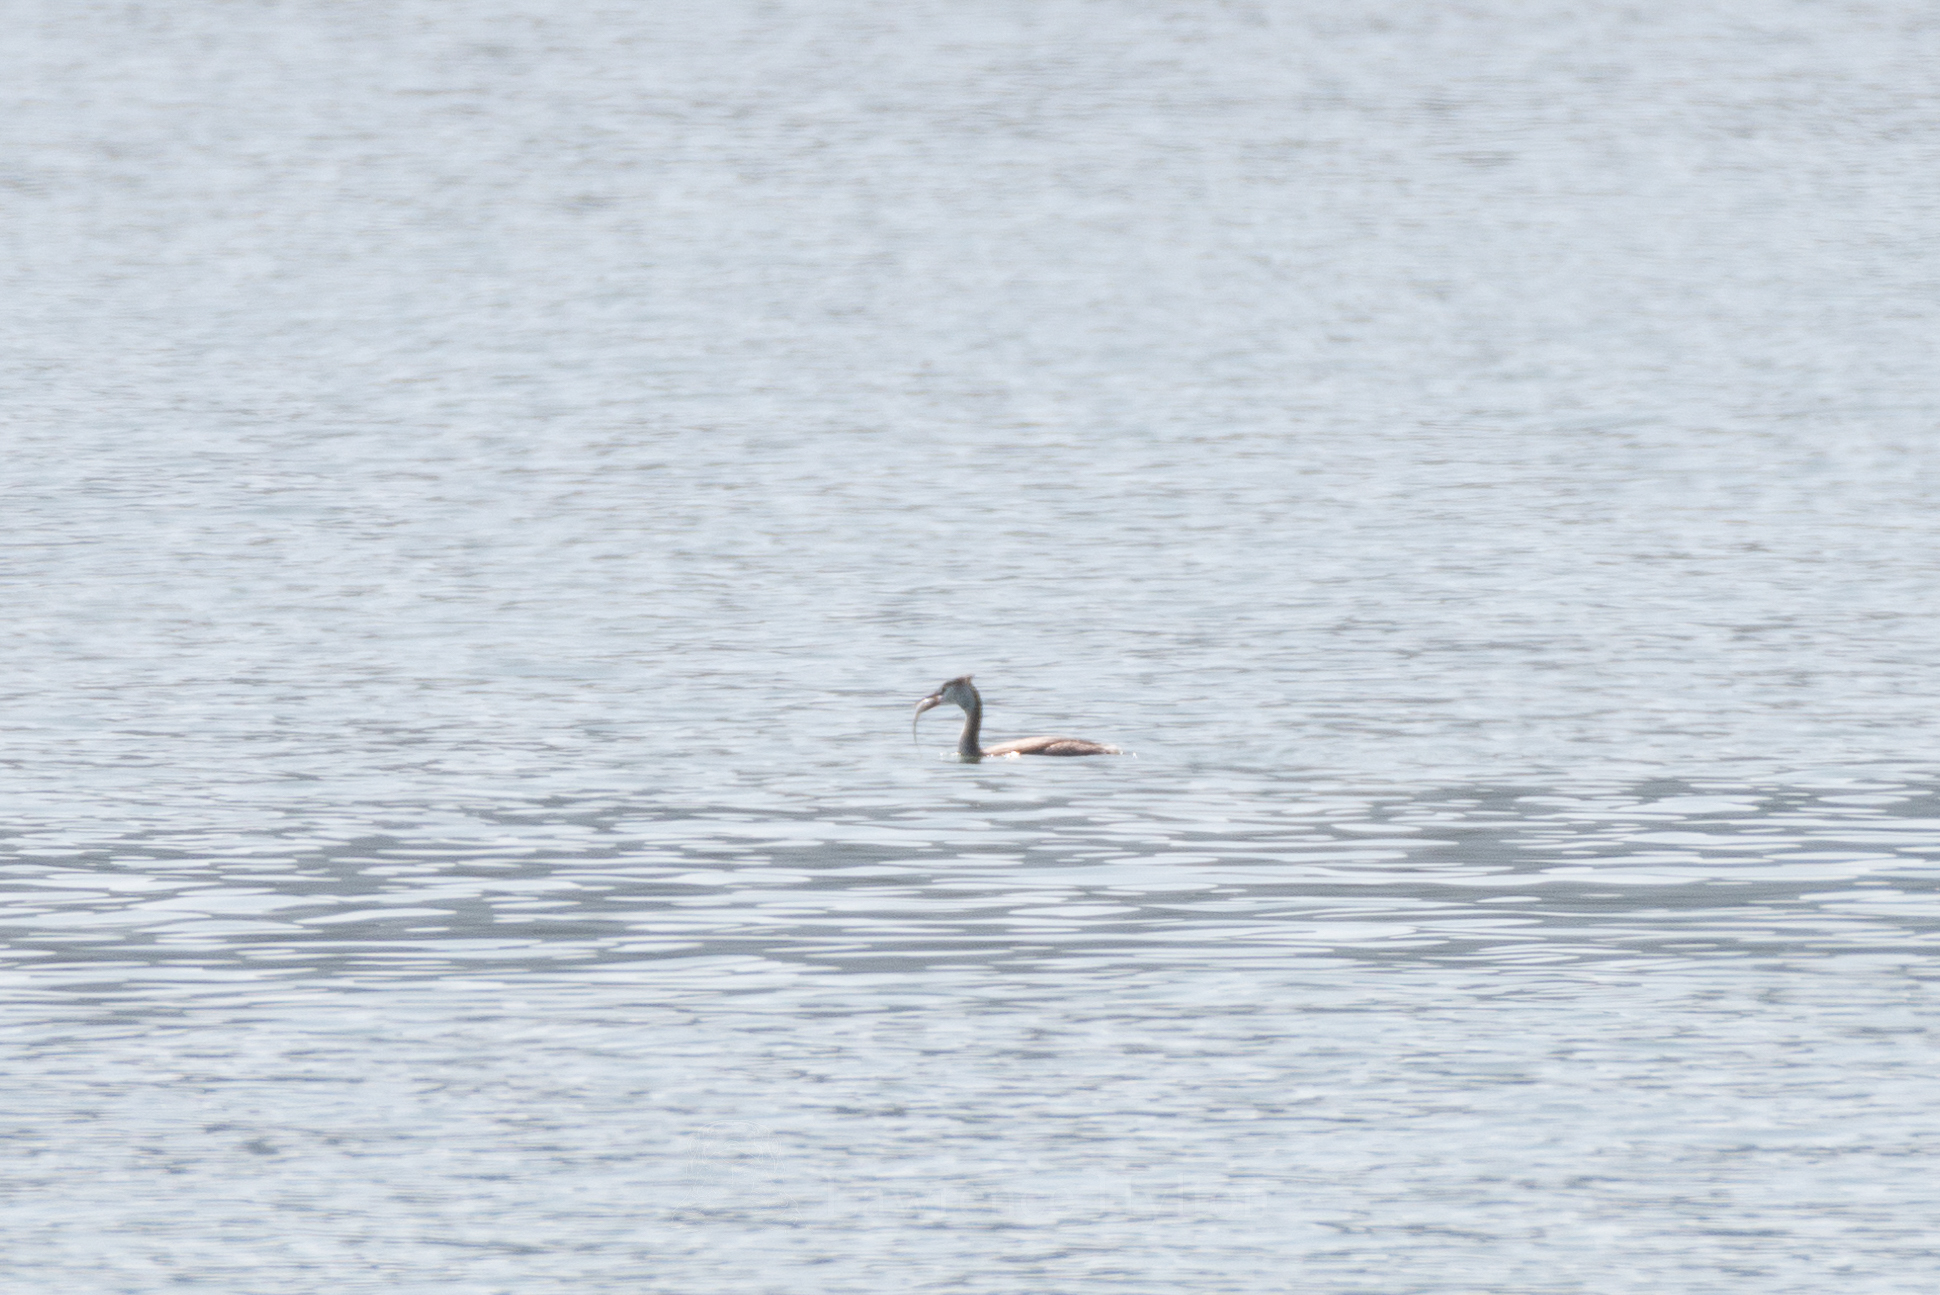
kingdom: Animalia
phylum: Chordata
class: Aves
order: Podicipediformes
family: Podicipedidae
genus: Podiceps
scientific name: Podiceps cristatus
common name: Great crested grebe
